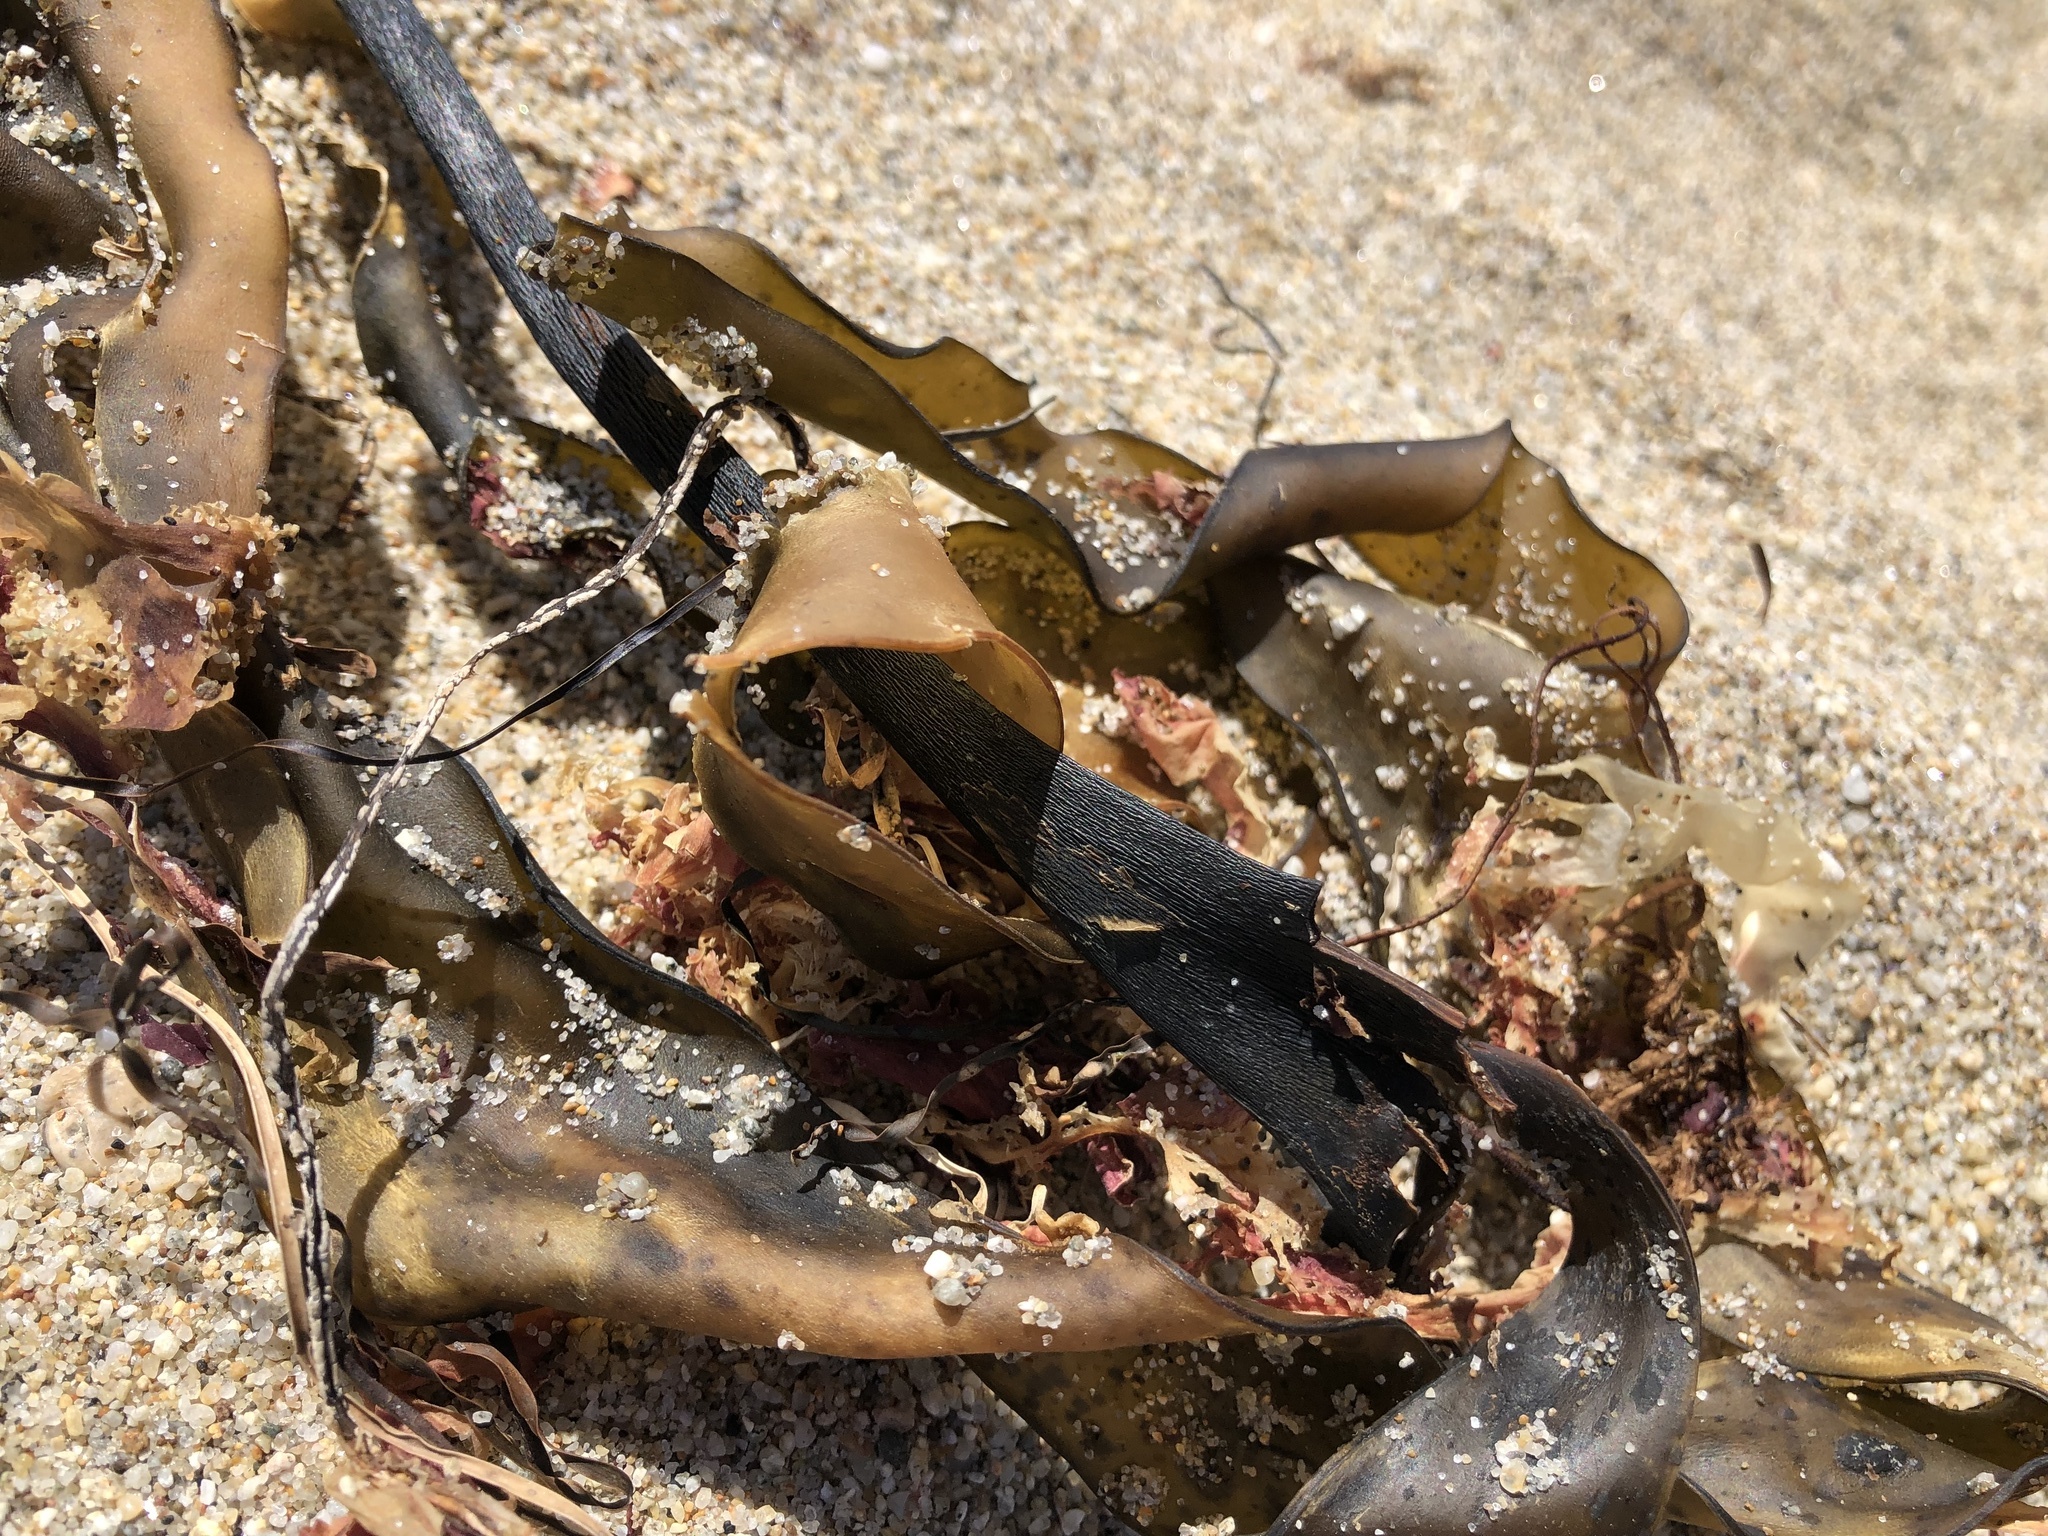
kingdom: Chromista
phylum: Ochrophyta
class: Phaeophyceae
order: Laminariales
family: Laminariaceae
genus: Laminaria
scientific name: Laminaria setchellii
